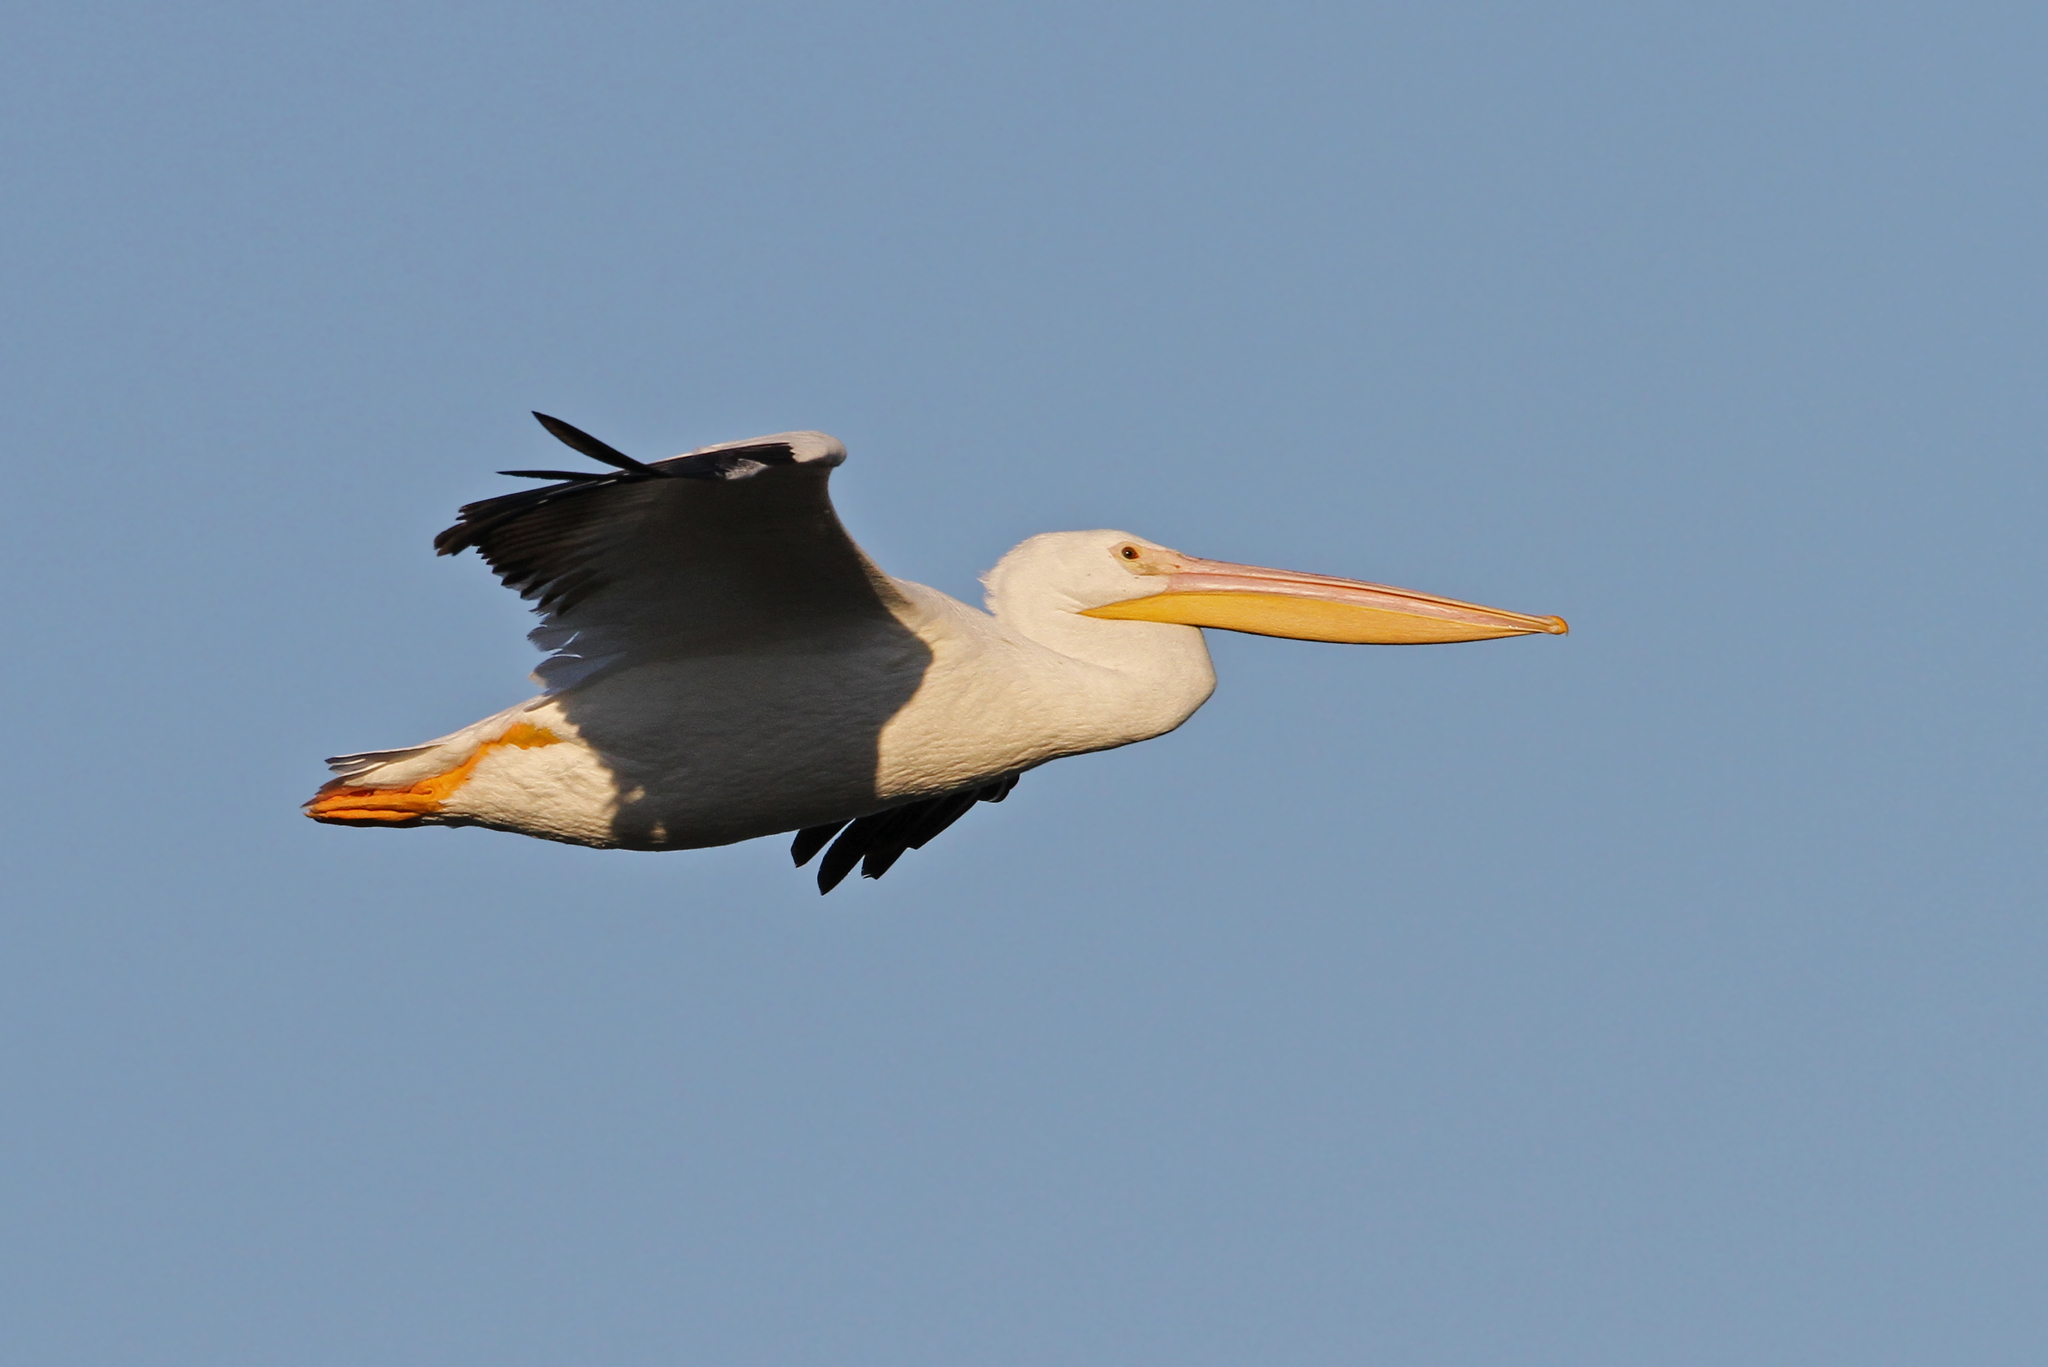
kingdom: Animalia
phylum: Chordata
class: Aves
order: Pelecaniformes
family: Pelecanidae
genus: Pelecanus
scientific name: Pelecanus erythrorhynchos
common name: American white pelican
